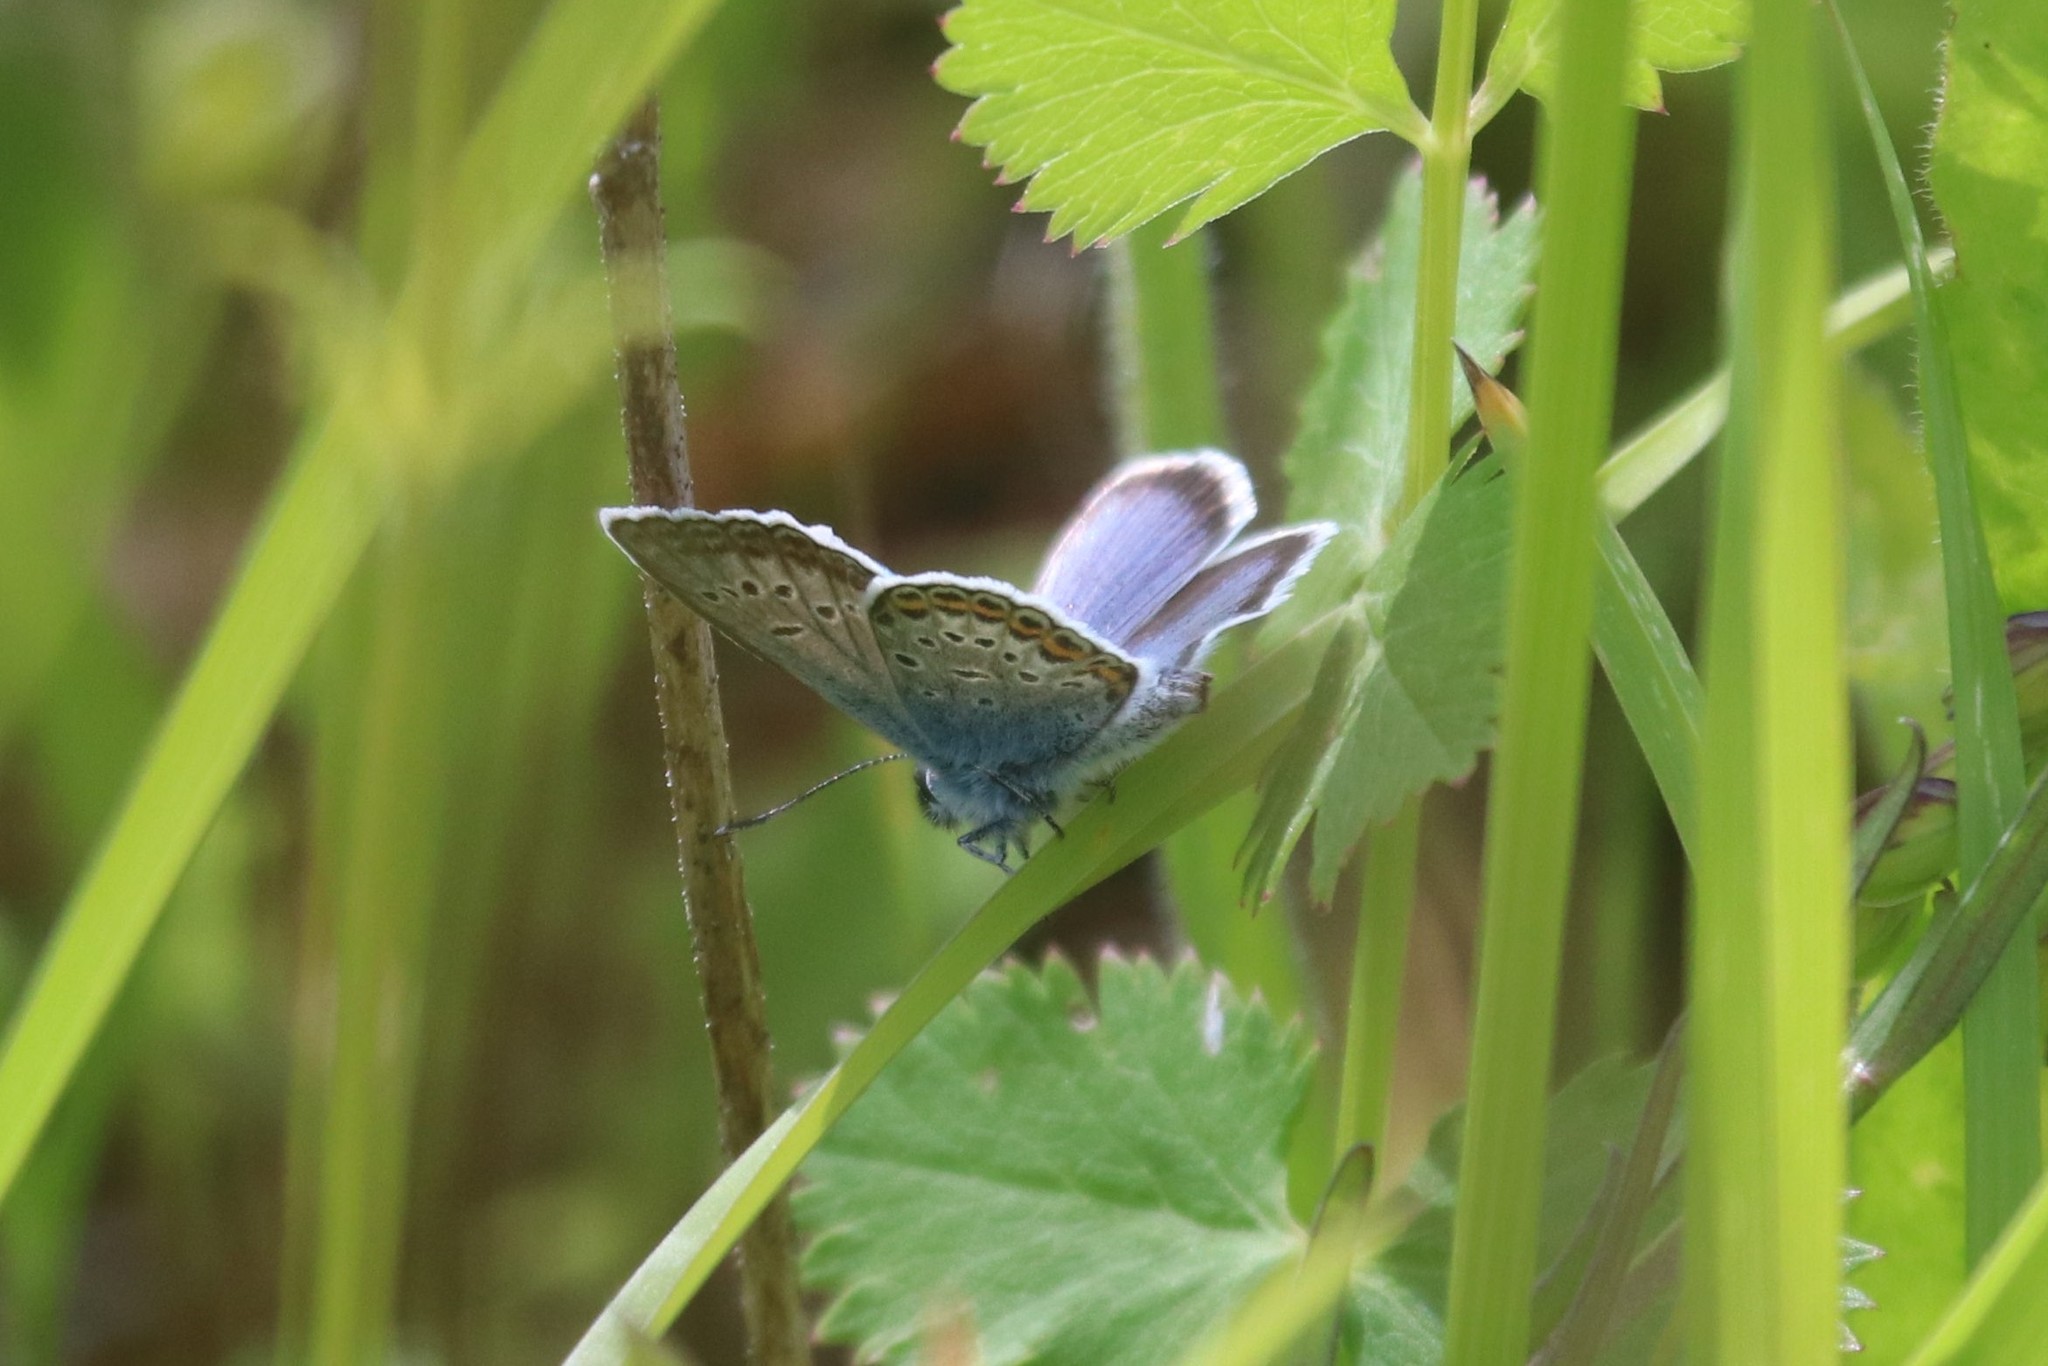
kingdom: Animalia
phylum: Arthropoda
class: Insecta
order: Lepidoptera
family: Lycaenidae
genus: Plebejus
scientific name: Plebejus argus
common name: Silver-studded blue
